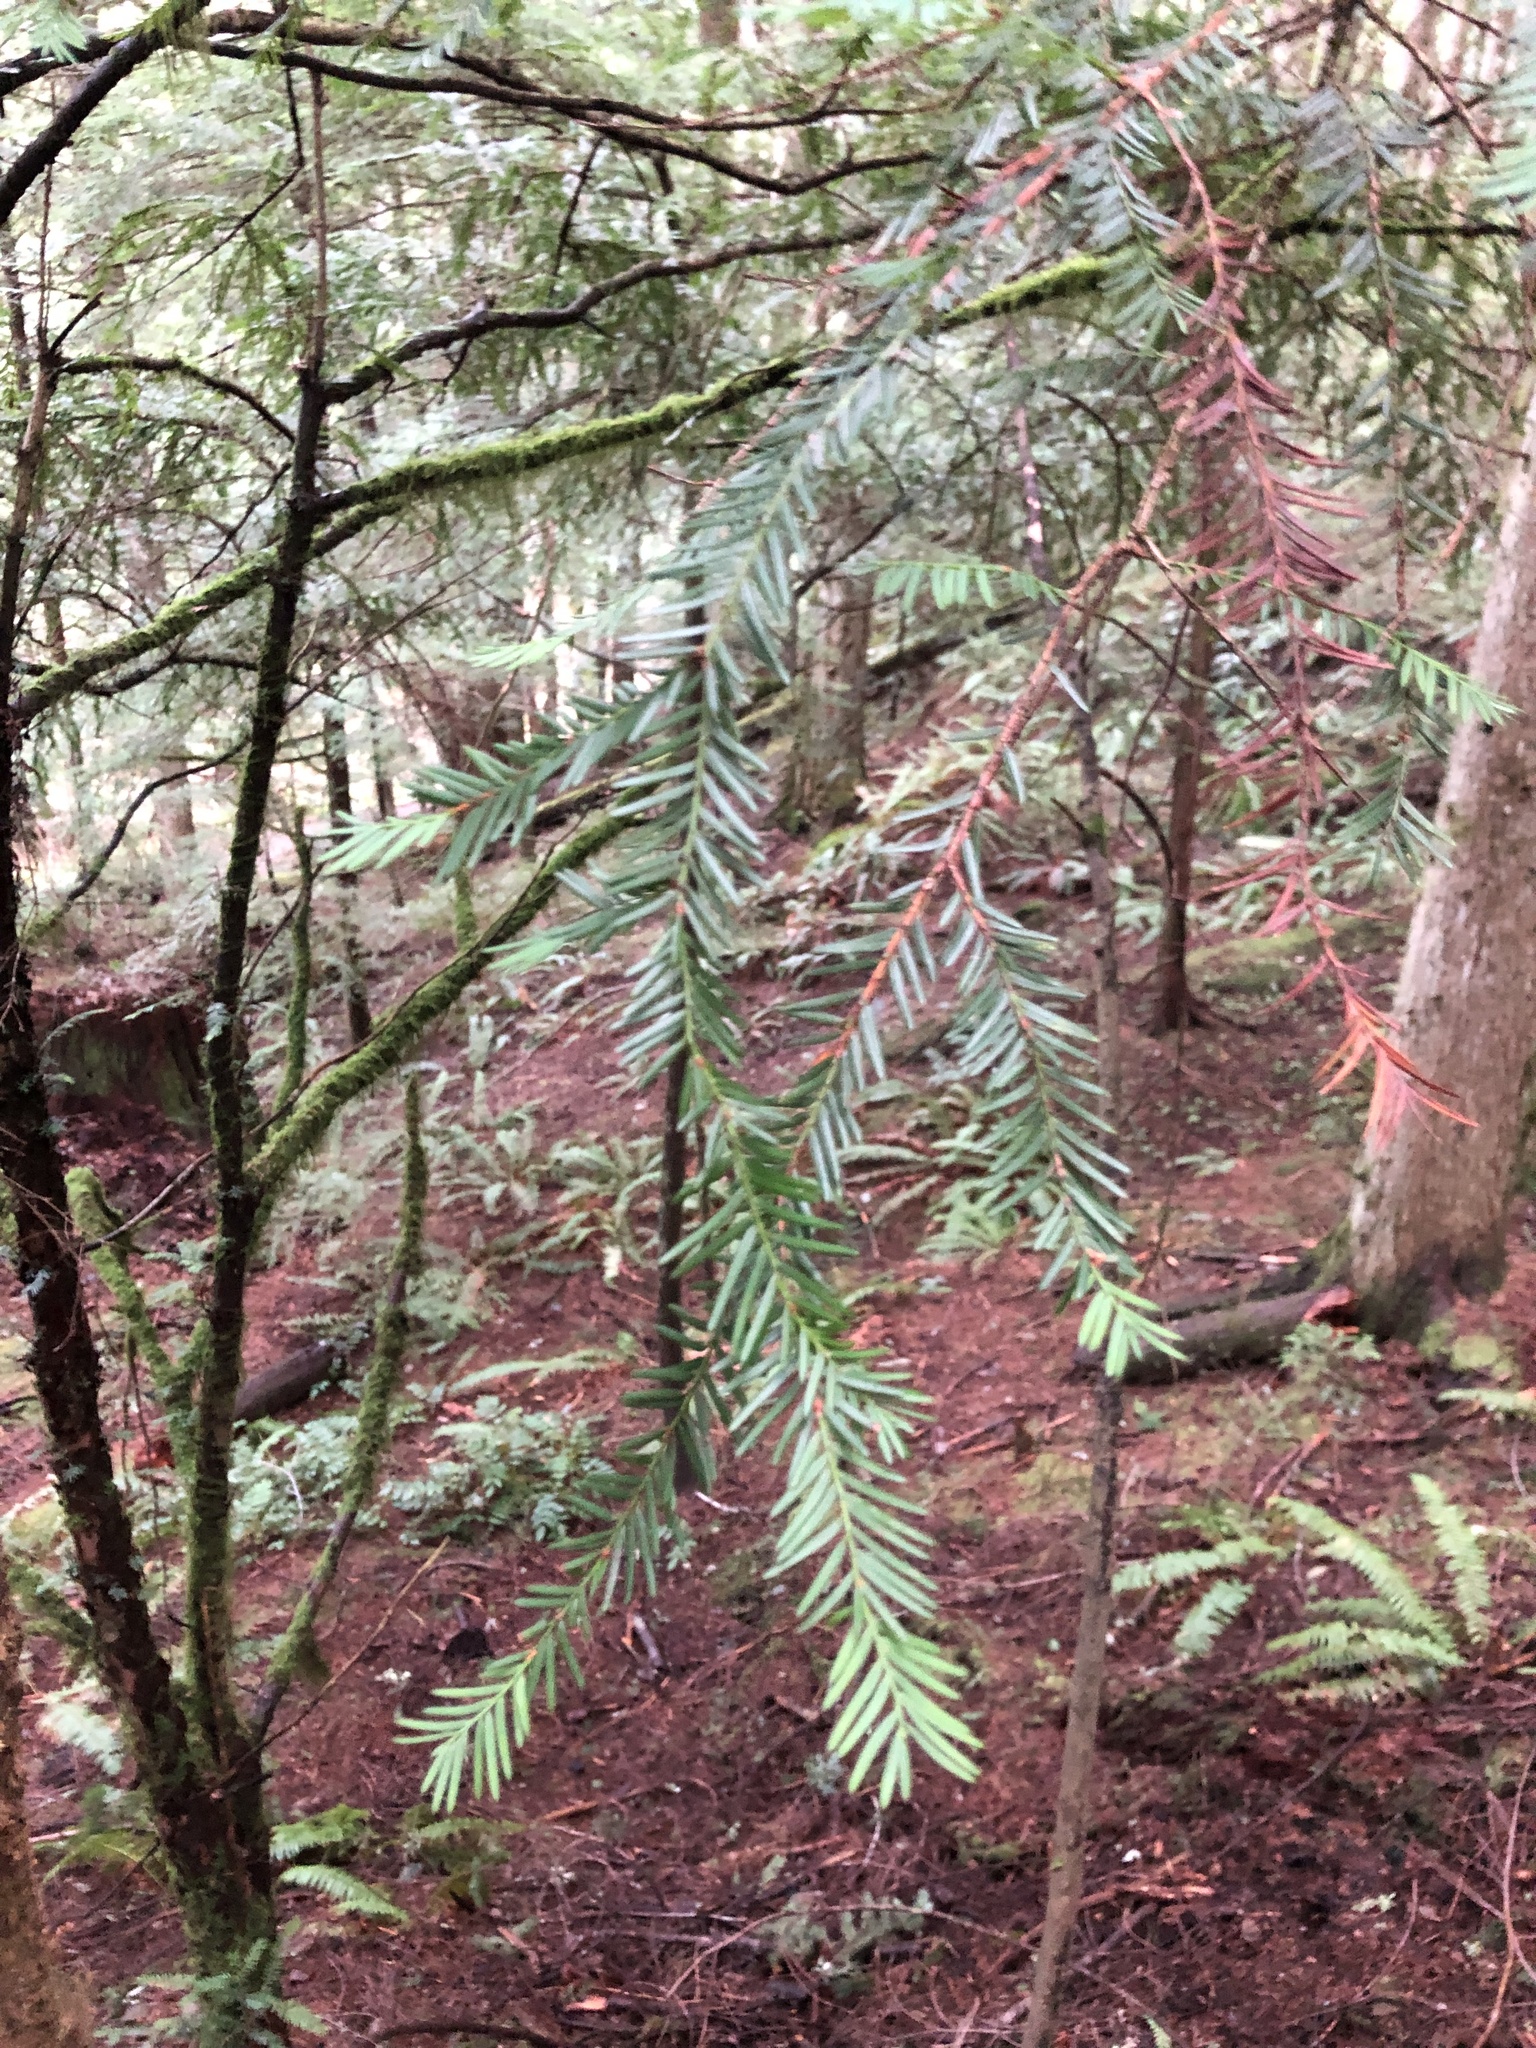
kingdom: Plantae
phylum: Tracheophyta
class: Pinopsida
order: Pinales
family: Taxaceae
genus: Taxus
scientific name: Taxus brevifolia
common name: Pacific yew
